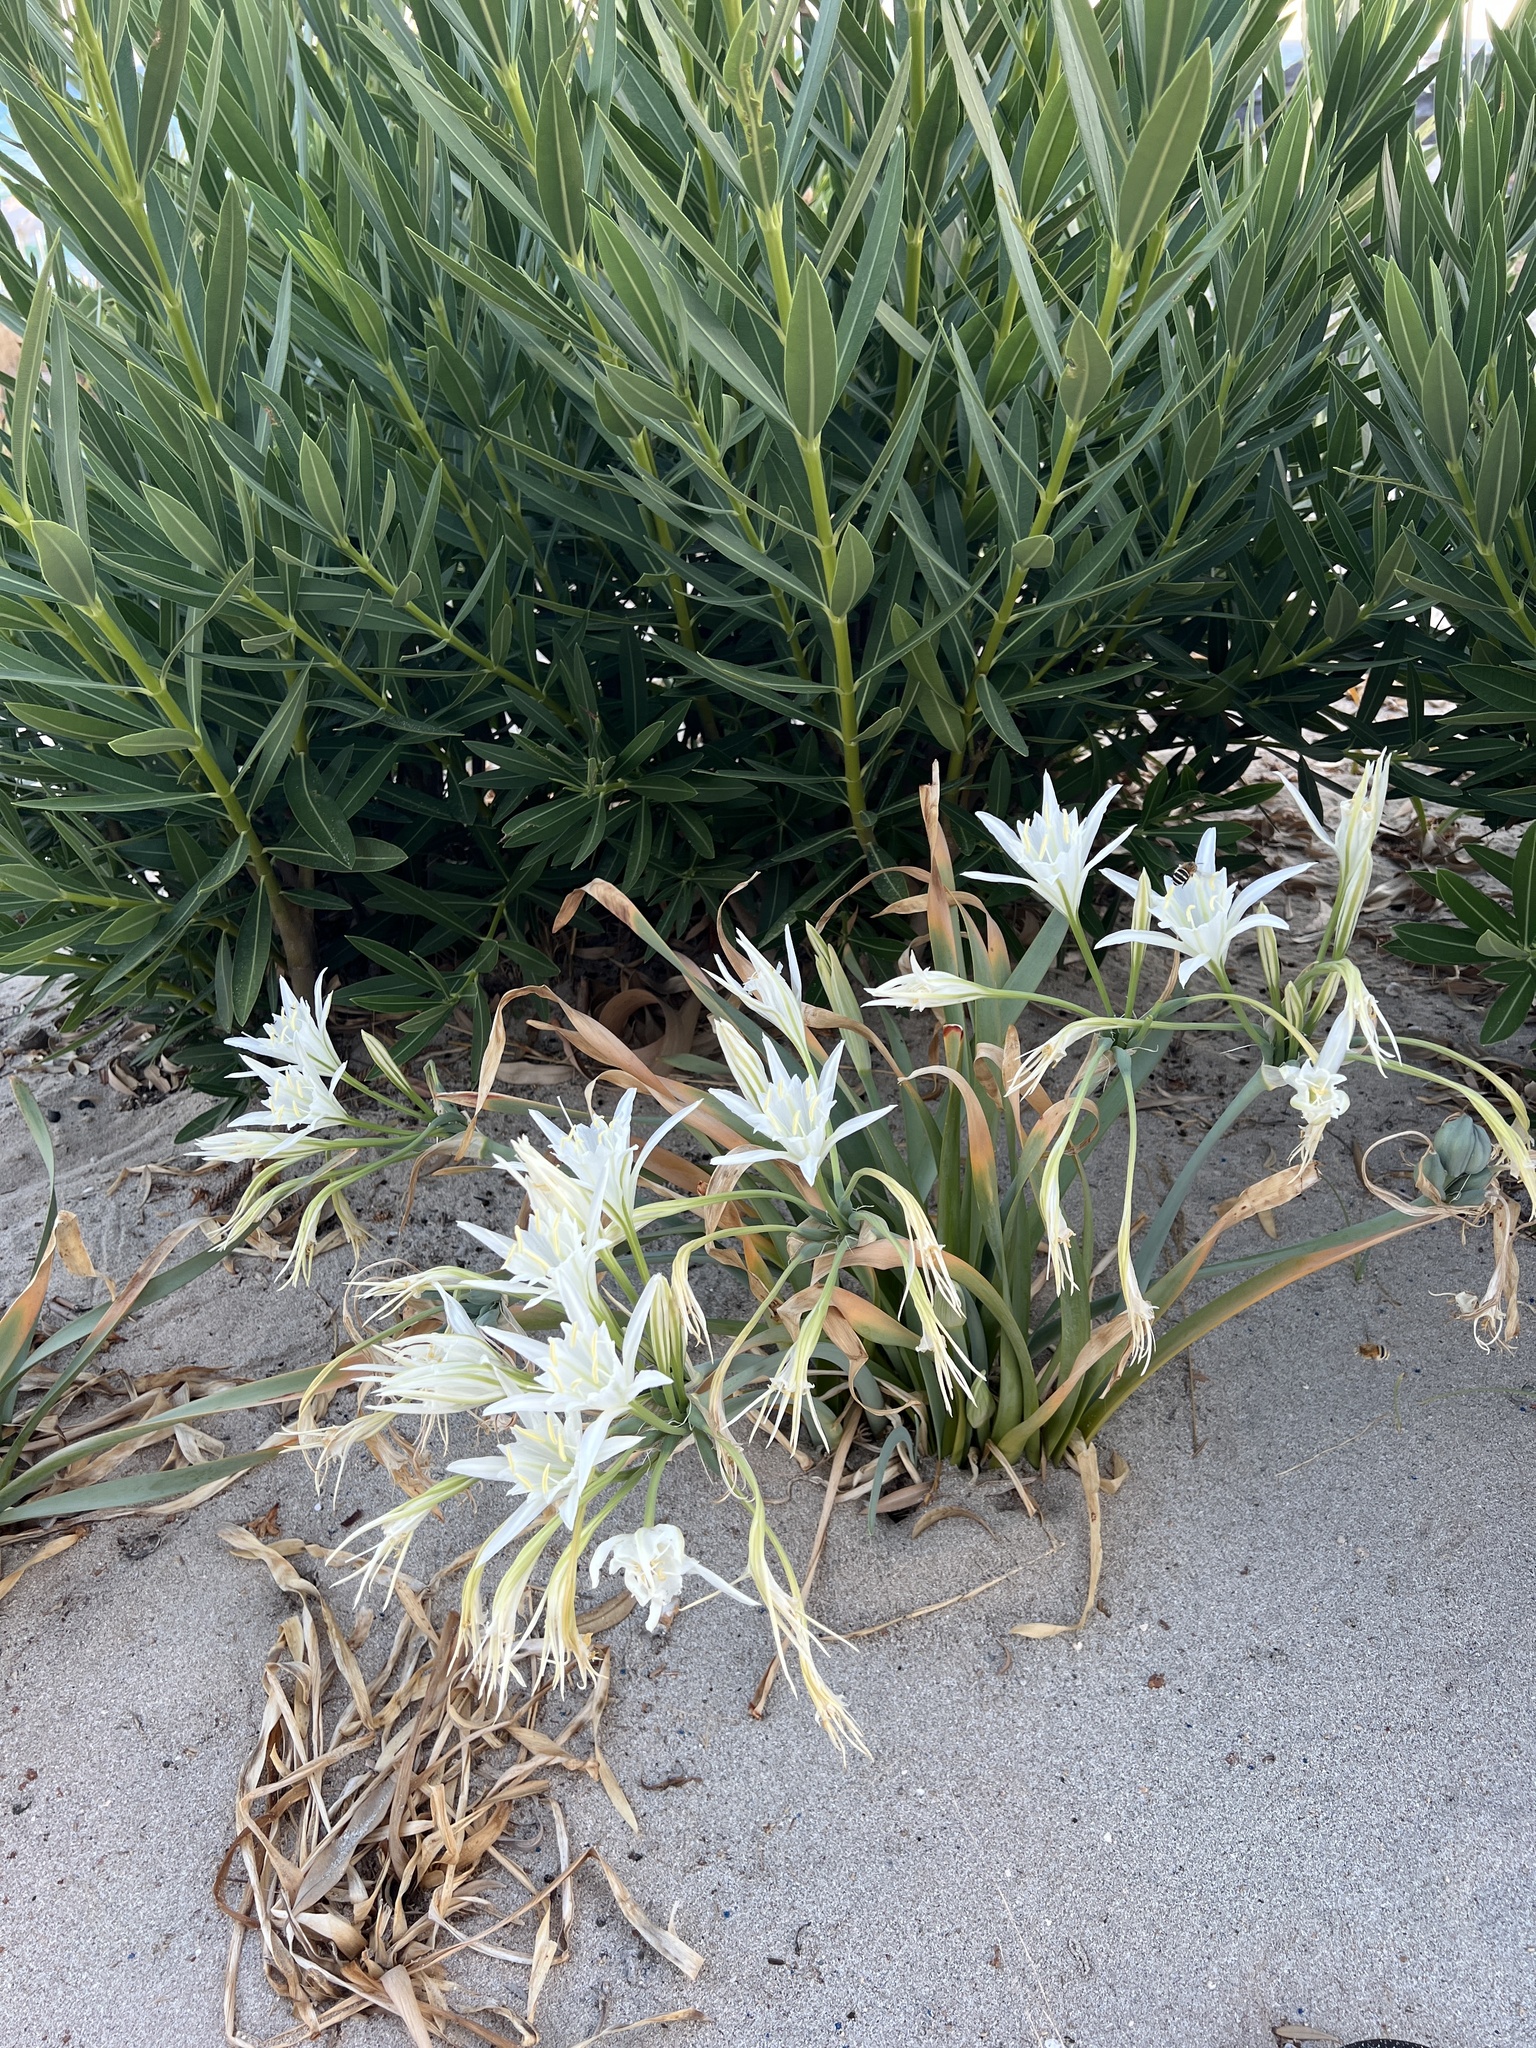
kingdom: Plantae
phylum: Tracheophyta
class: Liliopsida
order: Asparagales
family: Amaryllidaceae
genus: Pancratium
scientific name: Pancratium maritimum
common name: Sea-daffodil
